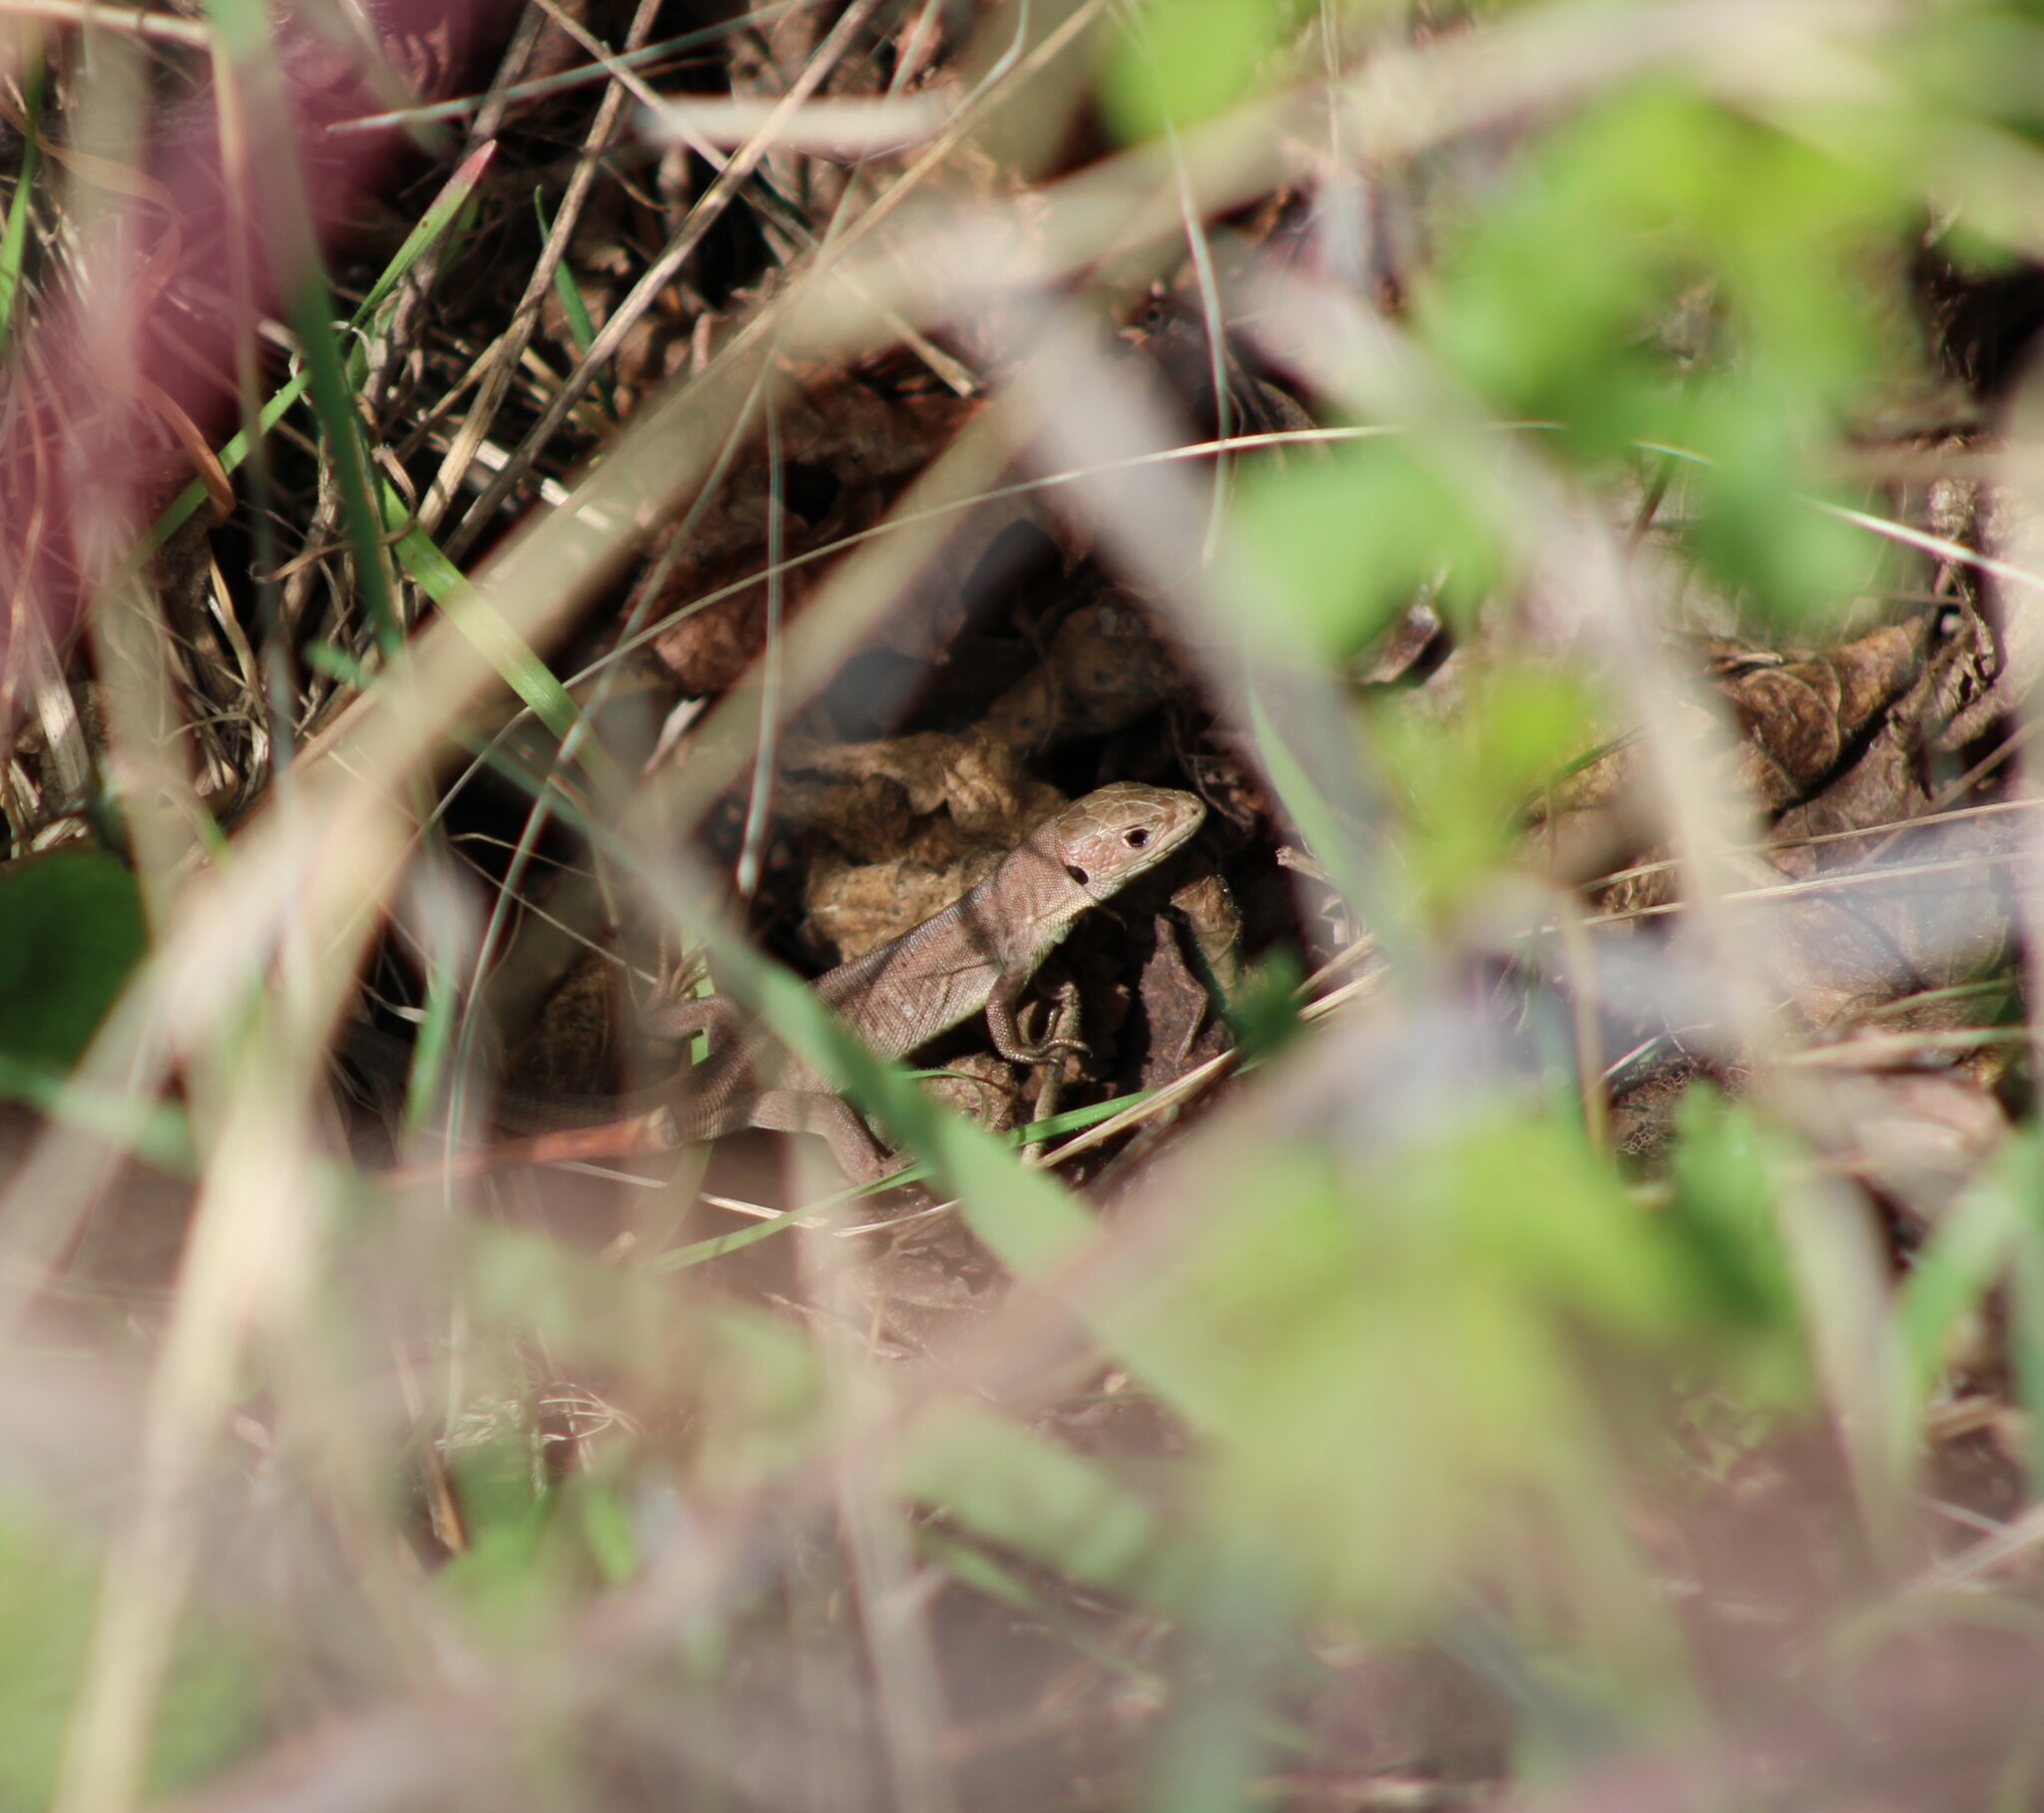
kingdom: Animalia
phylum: Chordata
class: Squamata
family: Lacertidae
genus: Lacerta
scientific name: Lacerta viridis
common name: European green lizard
